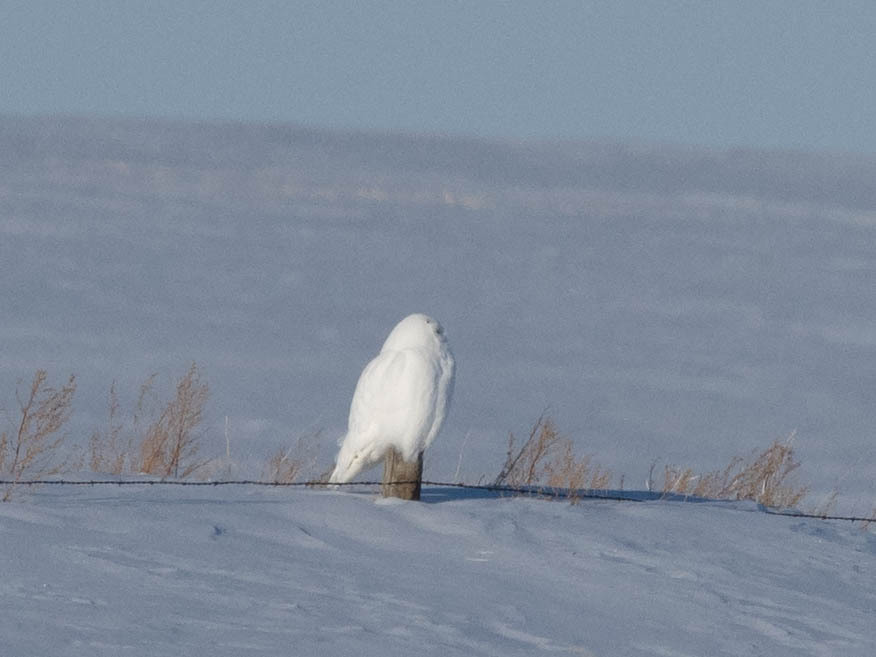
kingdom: Animalia
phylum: Chordata
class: Aves
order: Strigiformes
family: Strigidae
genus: Bubo
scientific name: Bubo scandiacus
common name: Snowy owl
